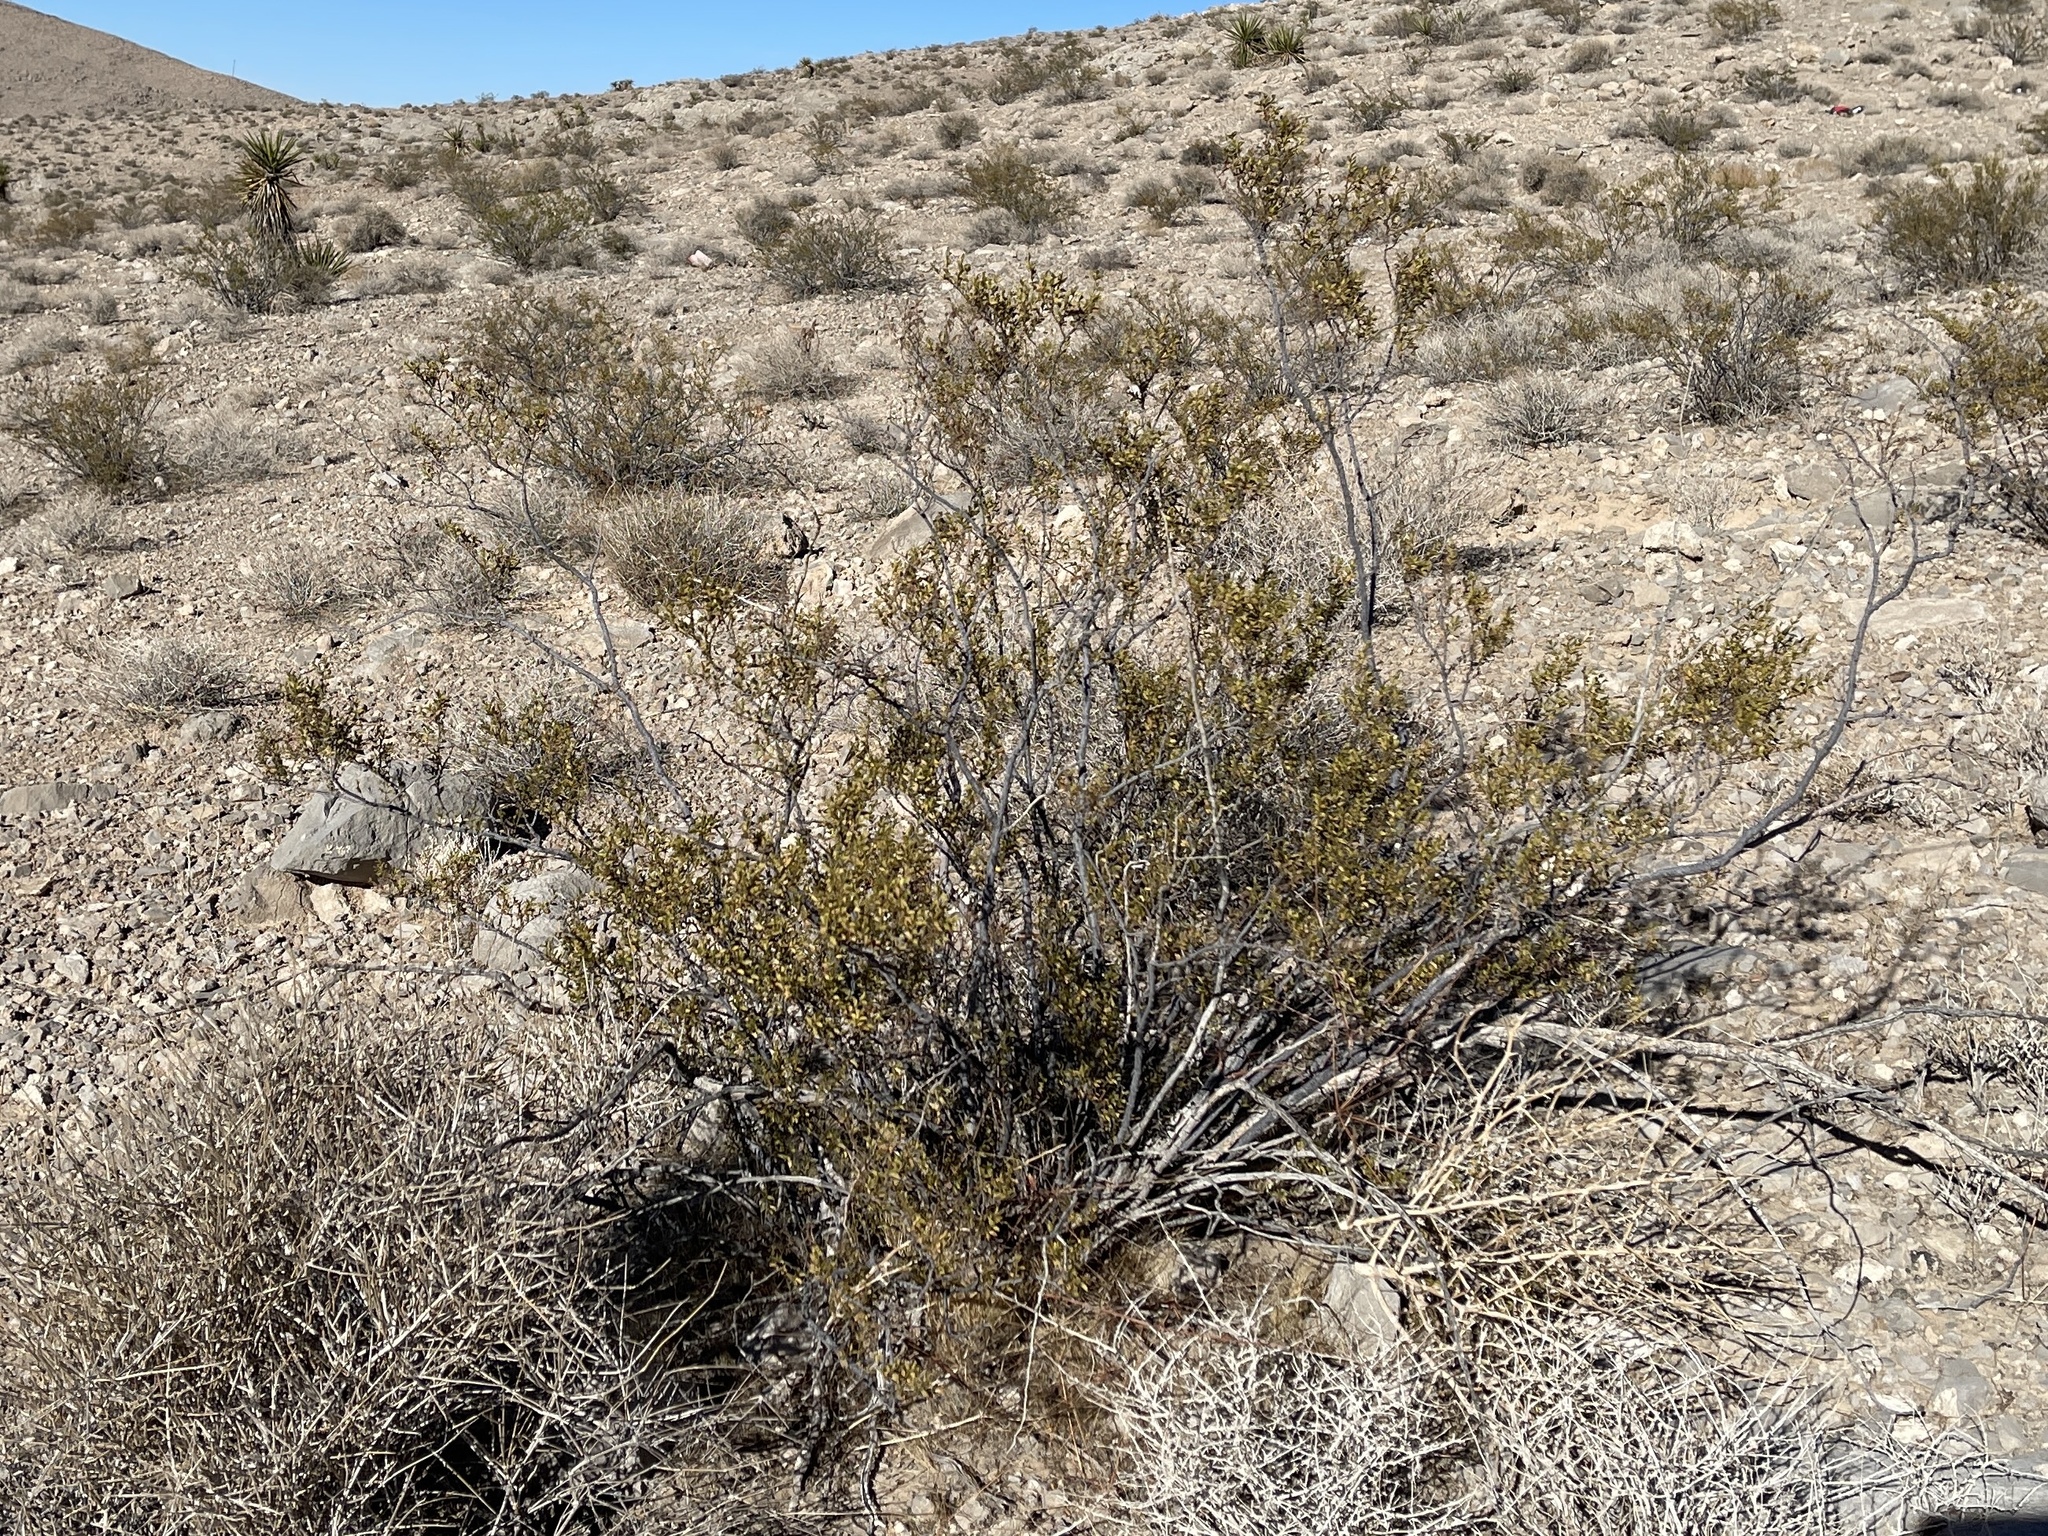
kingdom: Plantae
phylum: Tracheophyta
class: Magnoliopsida
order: Zygophyllales
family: Zygophyllaceae
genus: Larrea
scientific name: Larrea tridentata
